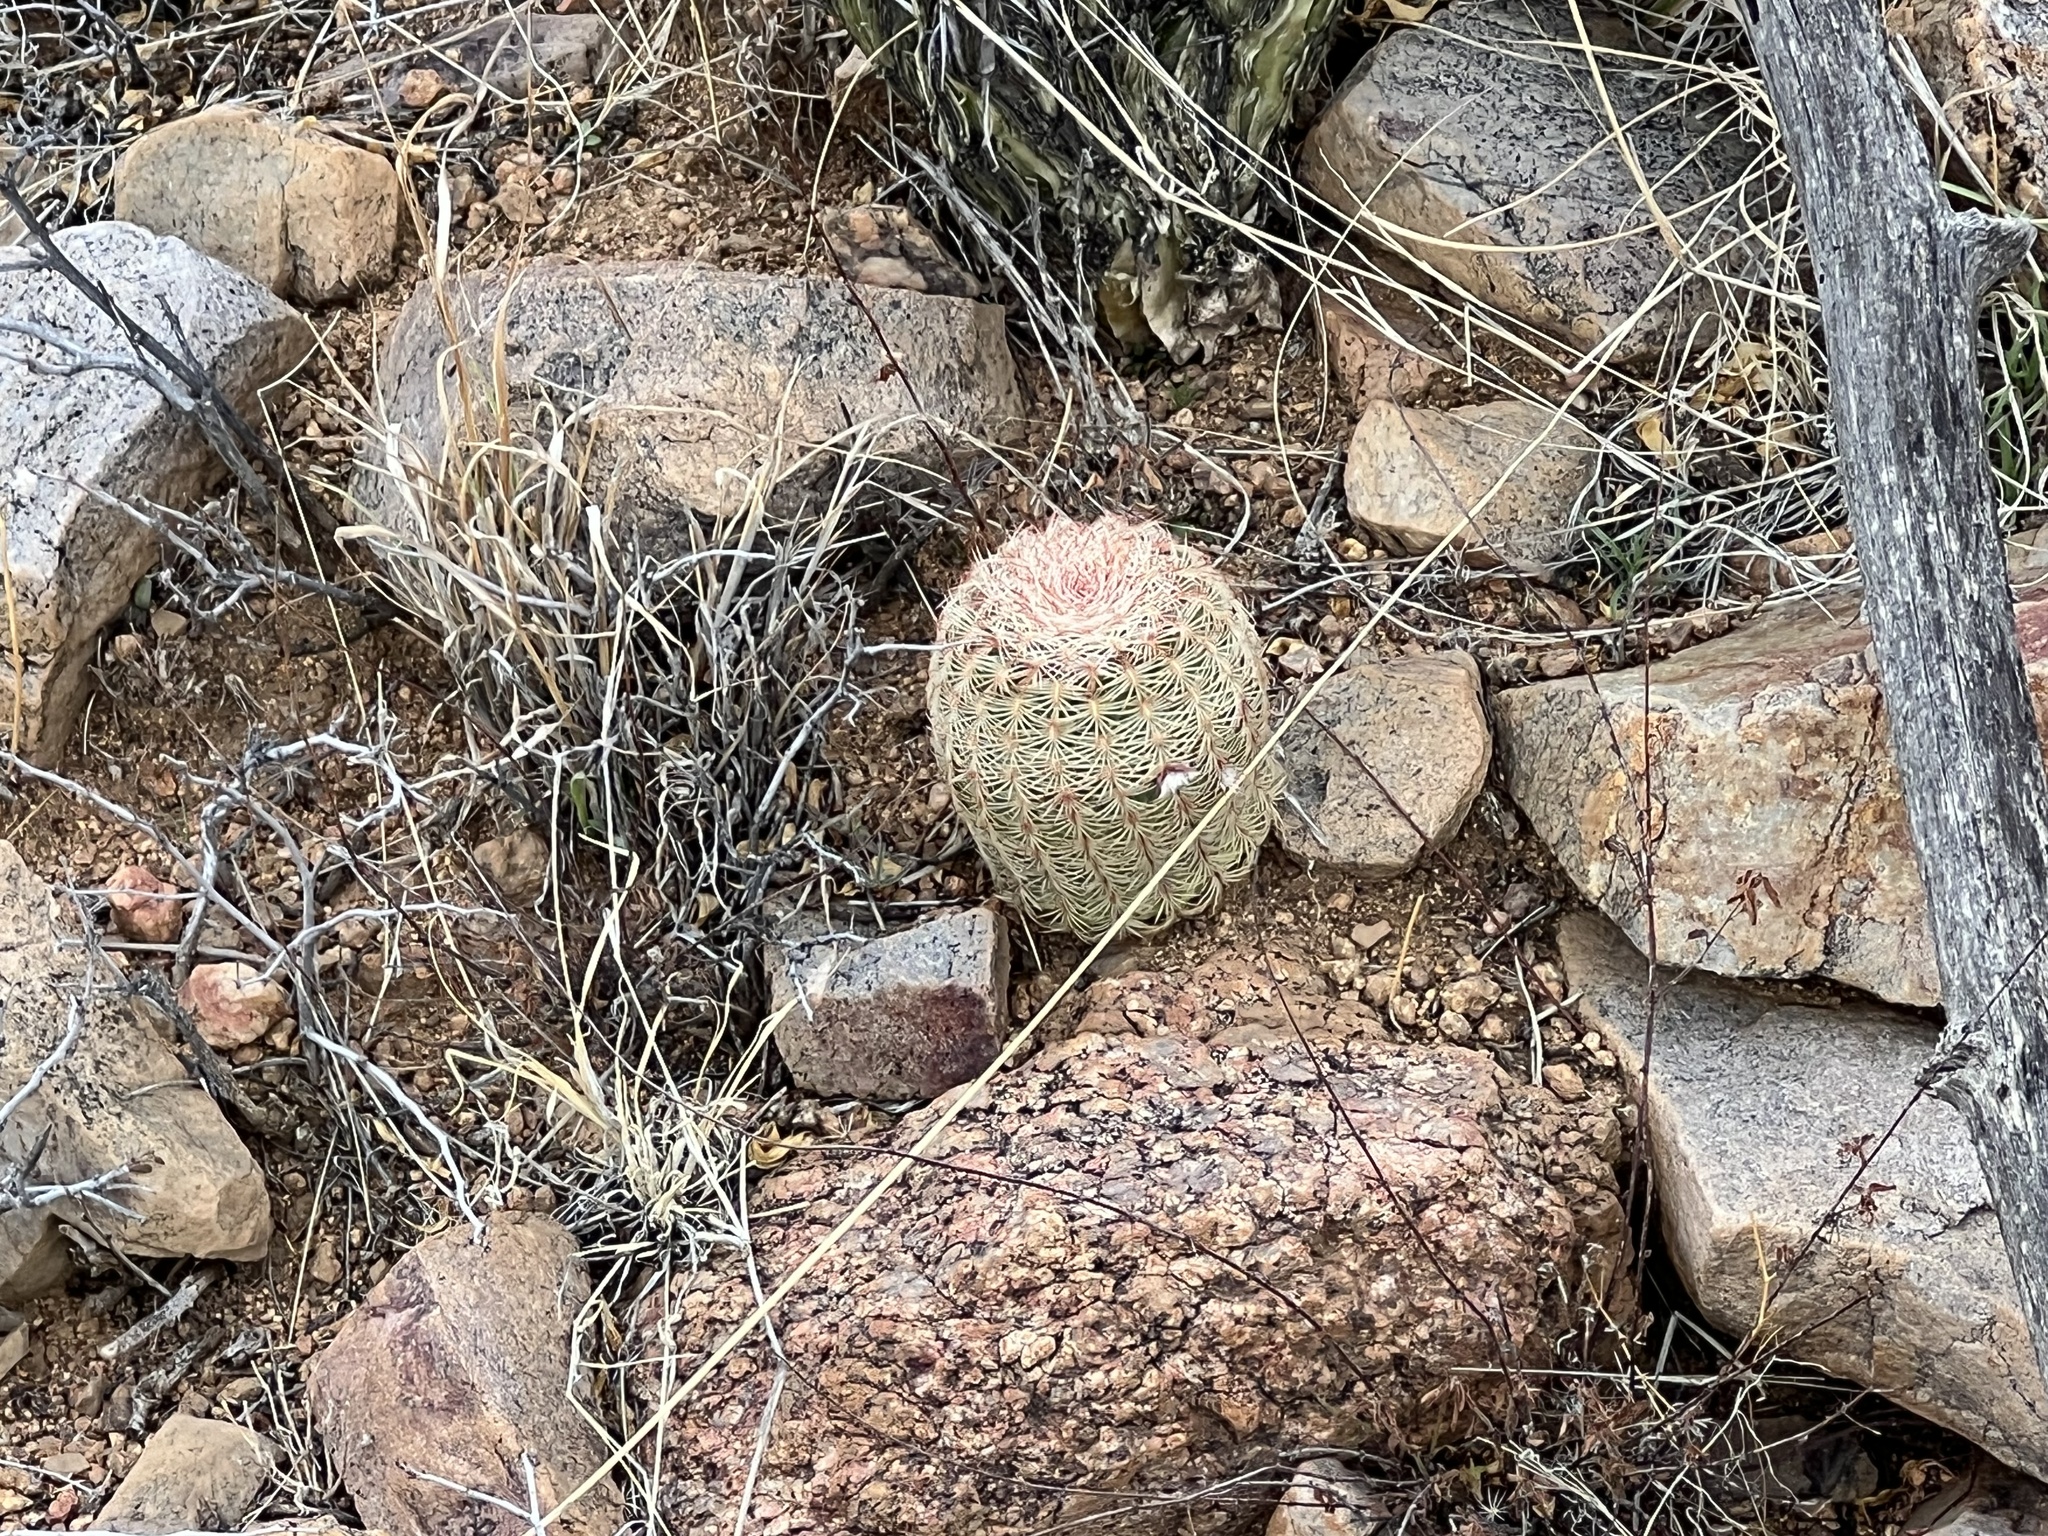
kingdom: Plantae
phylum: Tracheophyta
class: Magnoliopsida
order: Caryophyllales
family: Cactaceae
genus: Echinocereus
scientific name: Echinocereus rigidissimus
